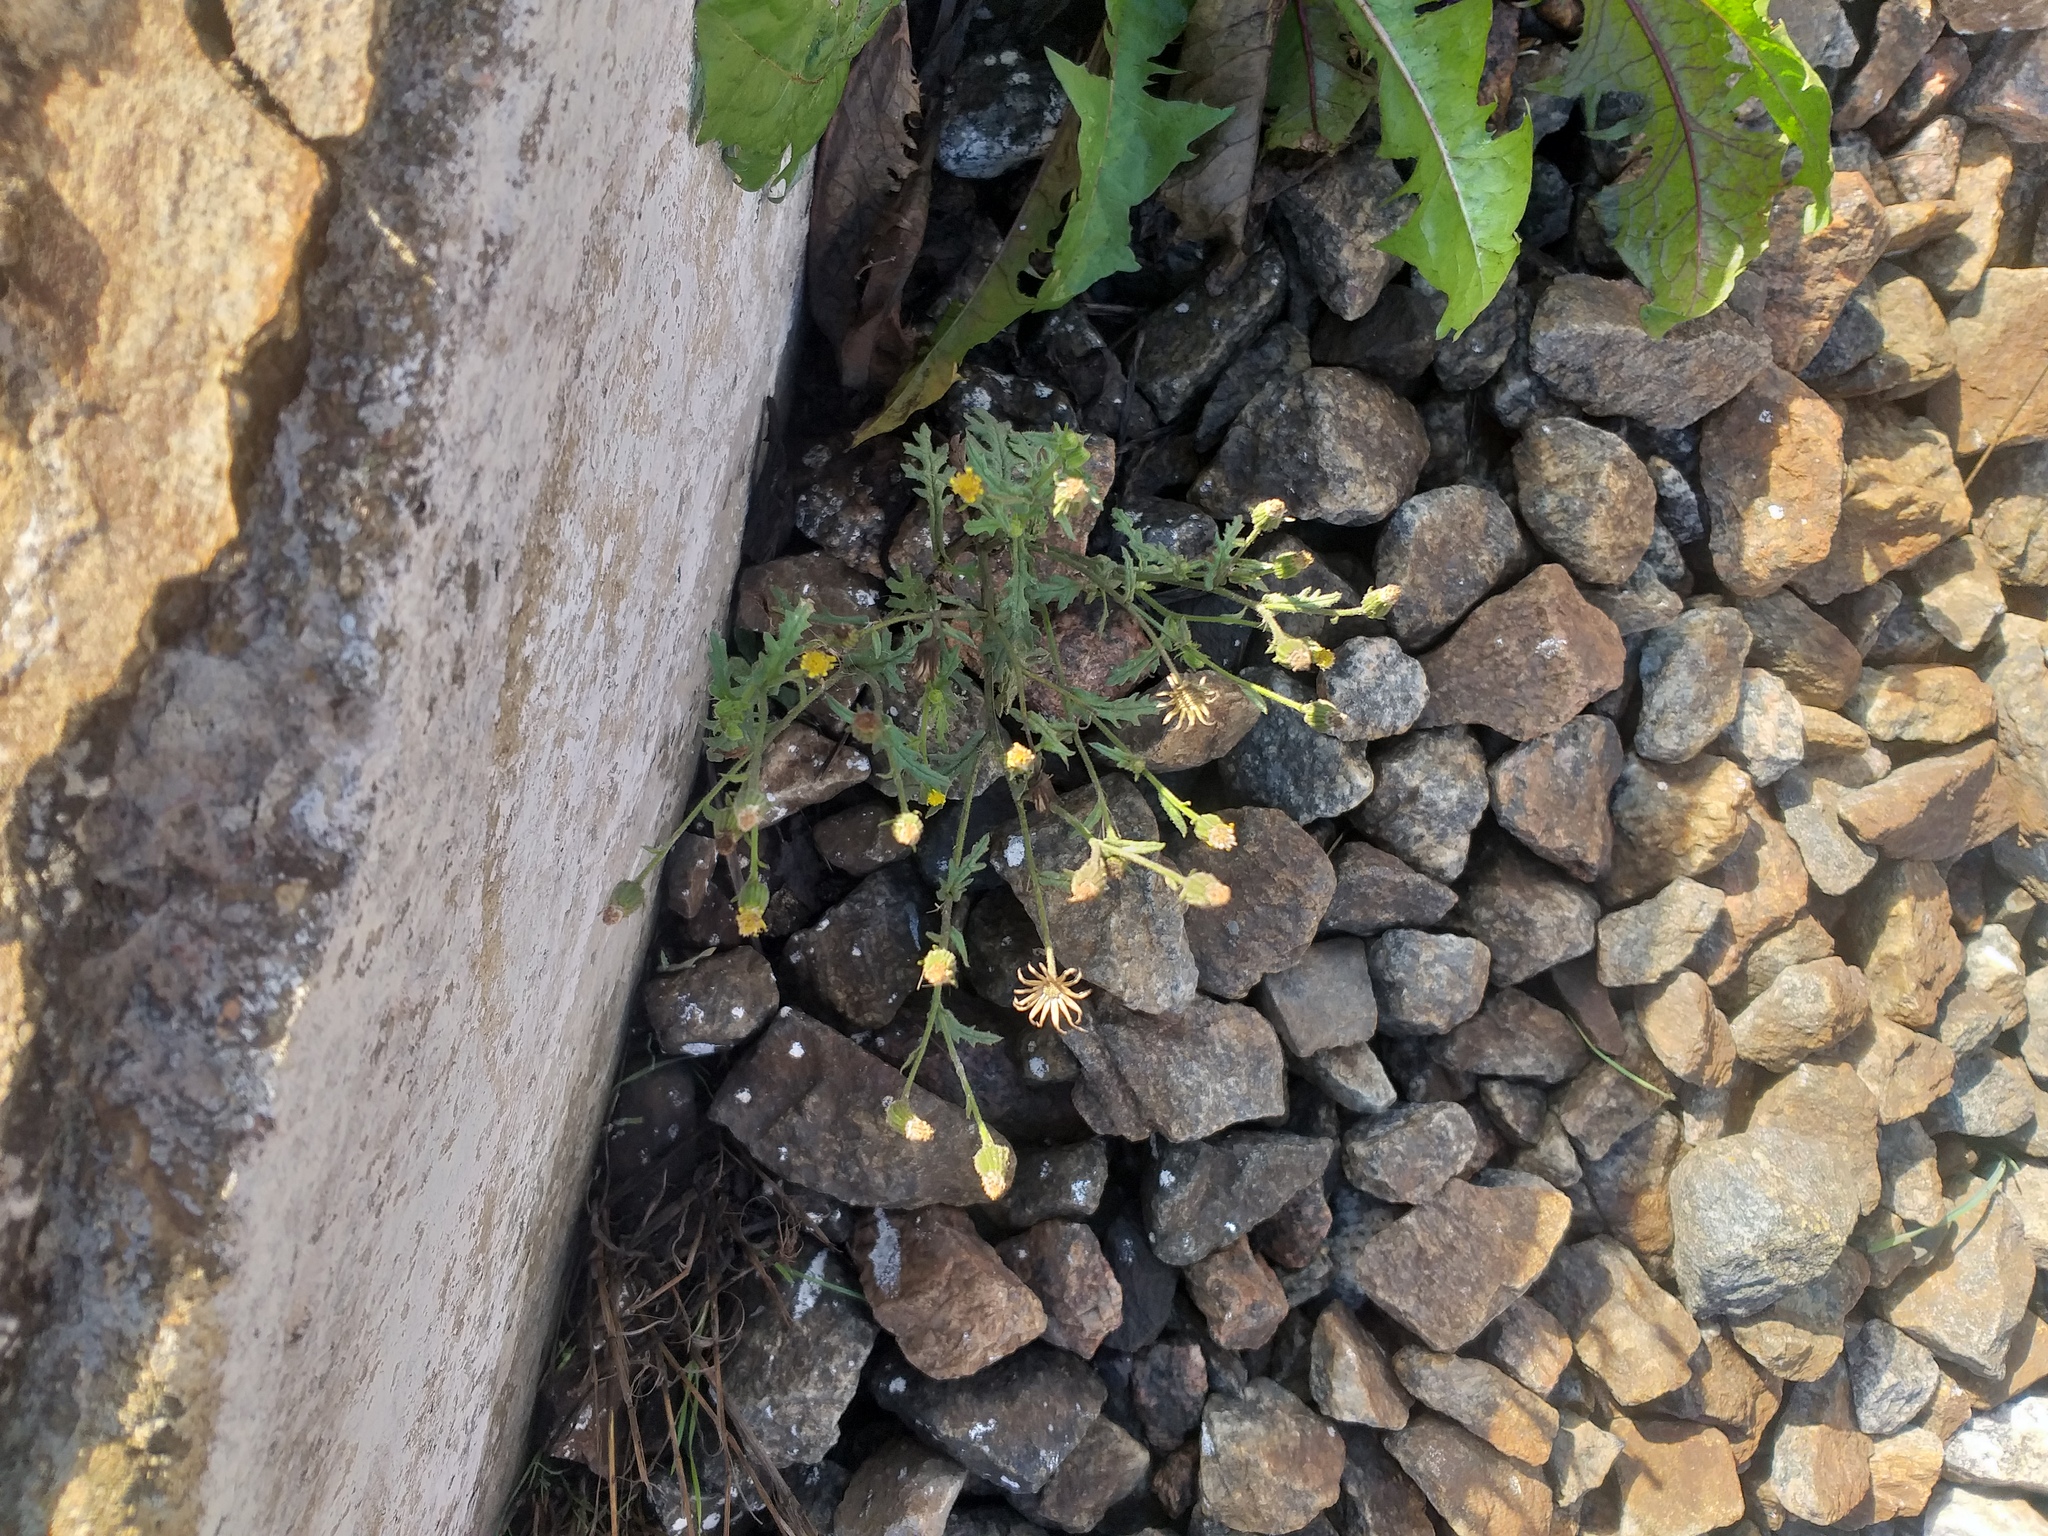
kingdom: Plantae
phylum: Tracheophyta
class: Magnoliopsida
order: Asterales
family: Asteraceae
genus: Senecio
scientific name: Senecio viscosus
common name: Sticky groundsel
